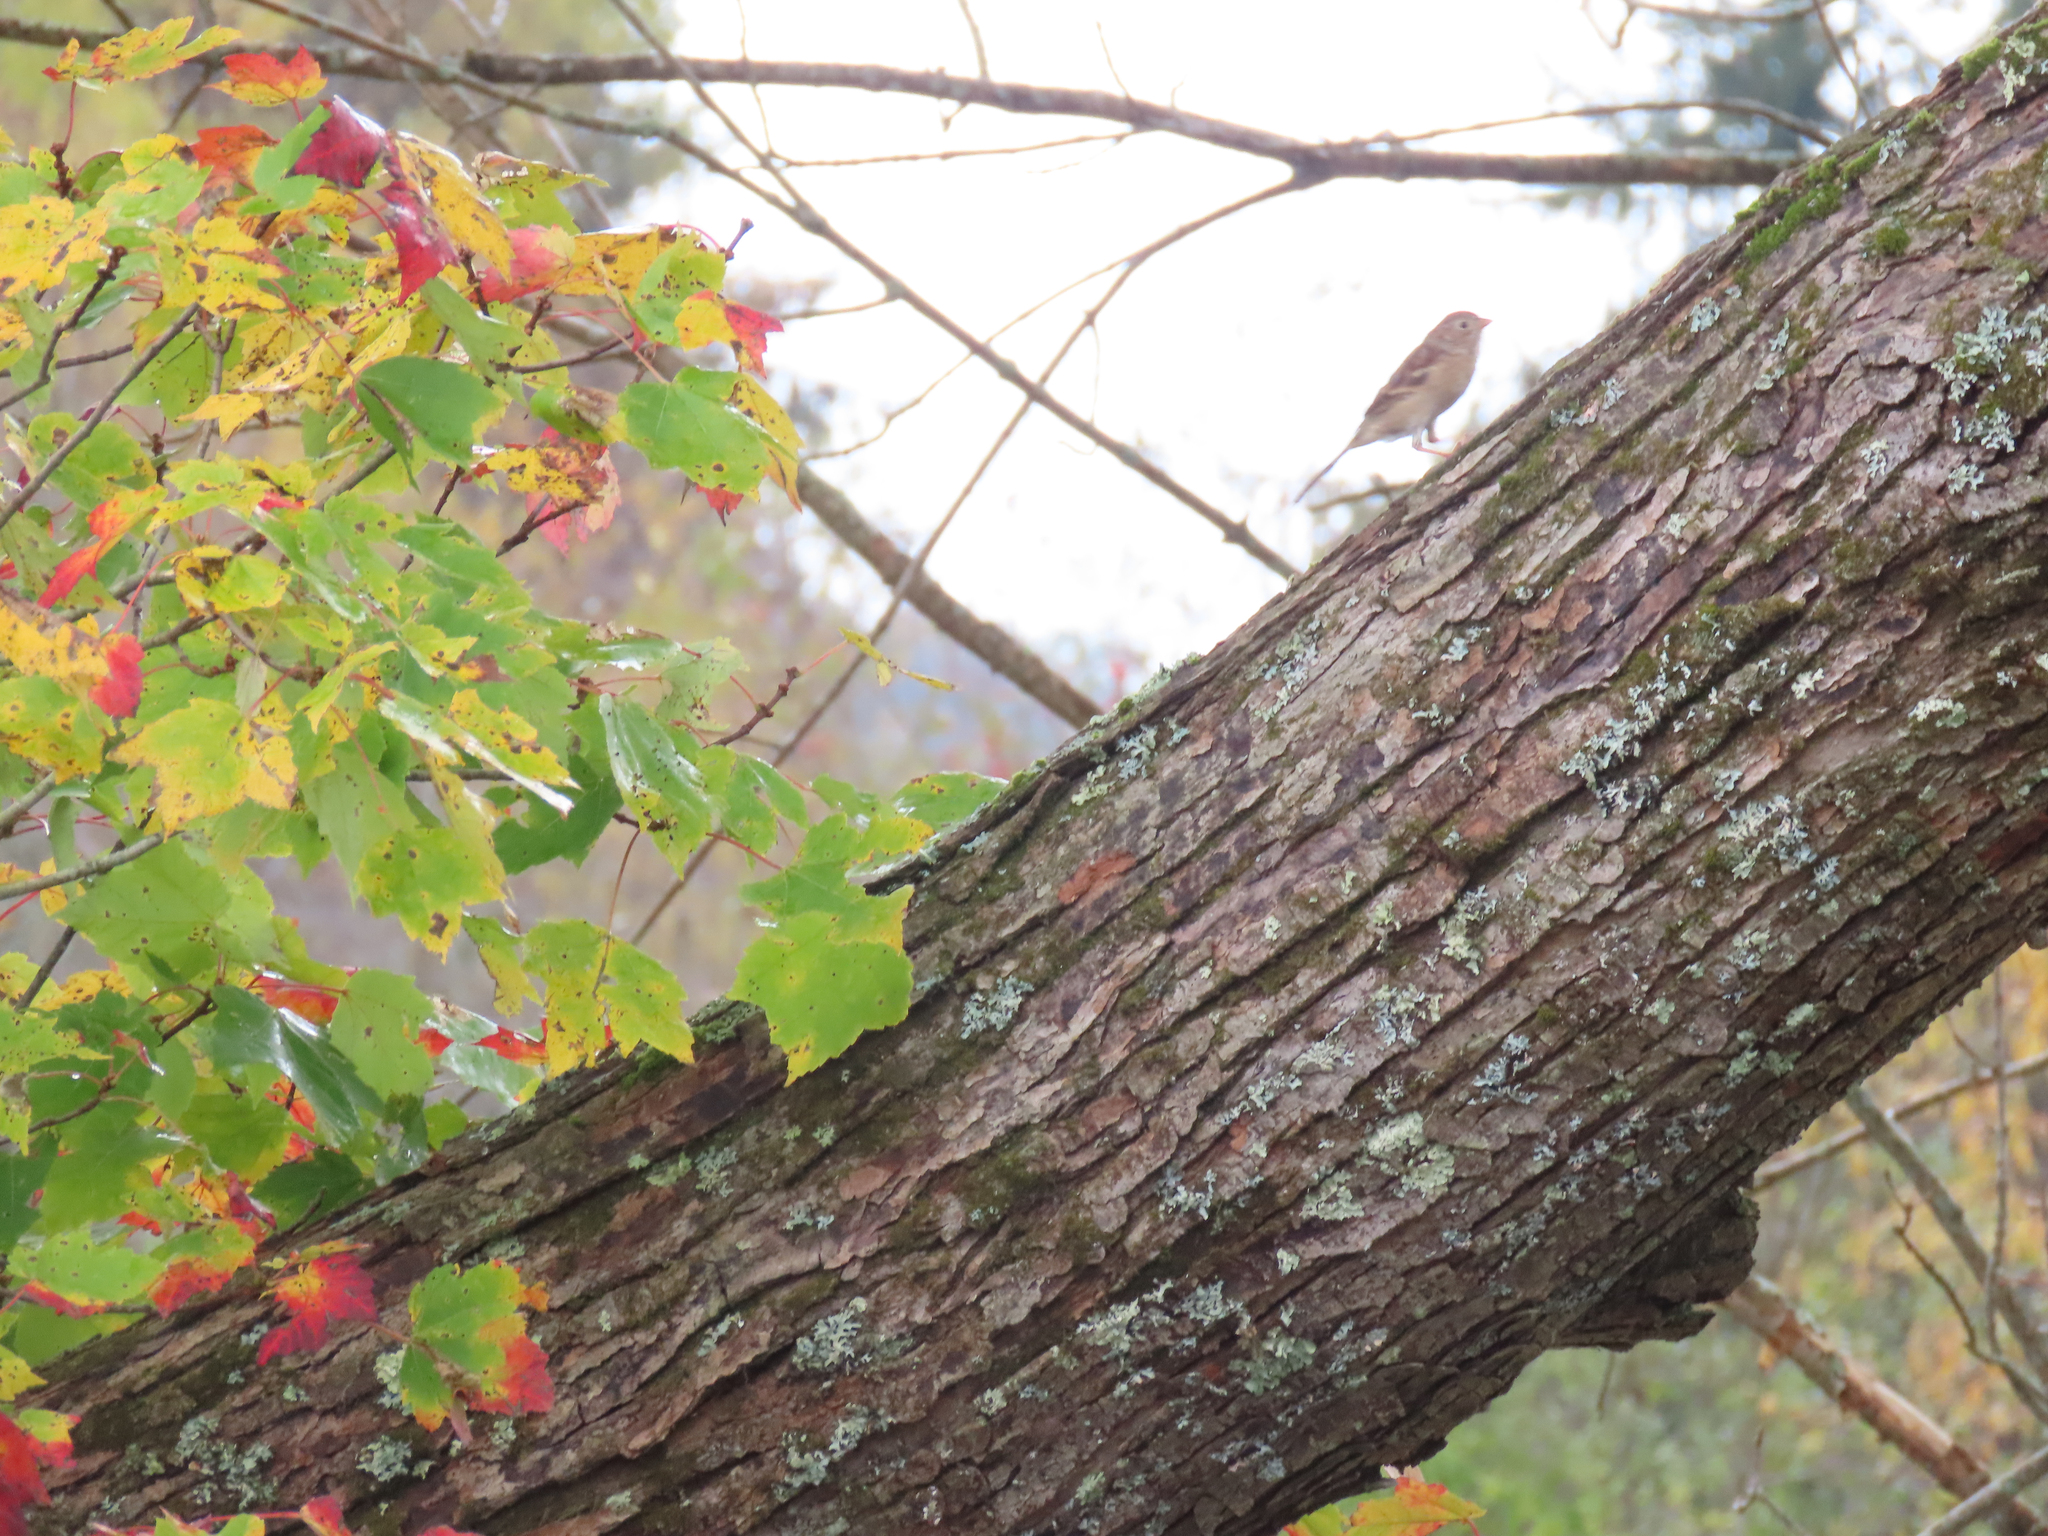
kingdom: Animalia
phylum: Chordata
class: Aves
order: Passeriformes
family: Passerellidae
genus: Spizella
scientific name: Spizella pusilla
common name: Field sparrow
